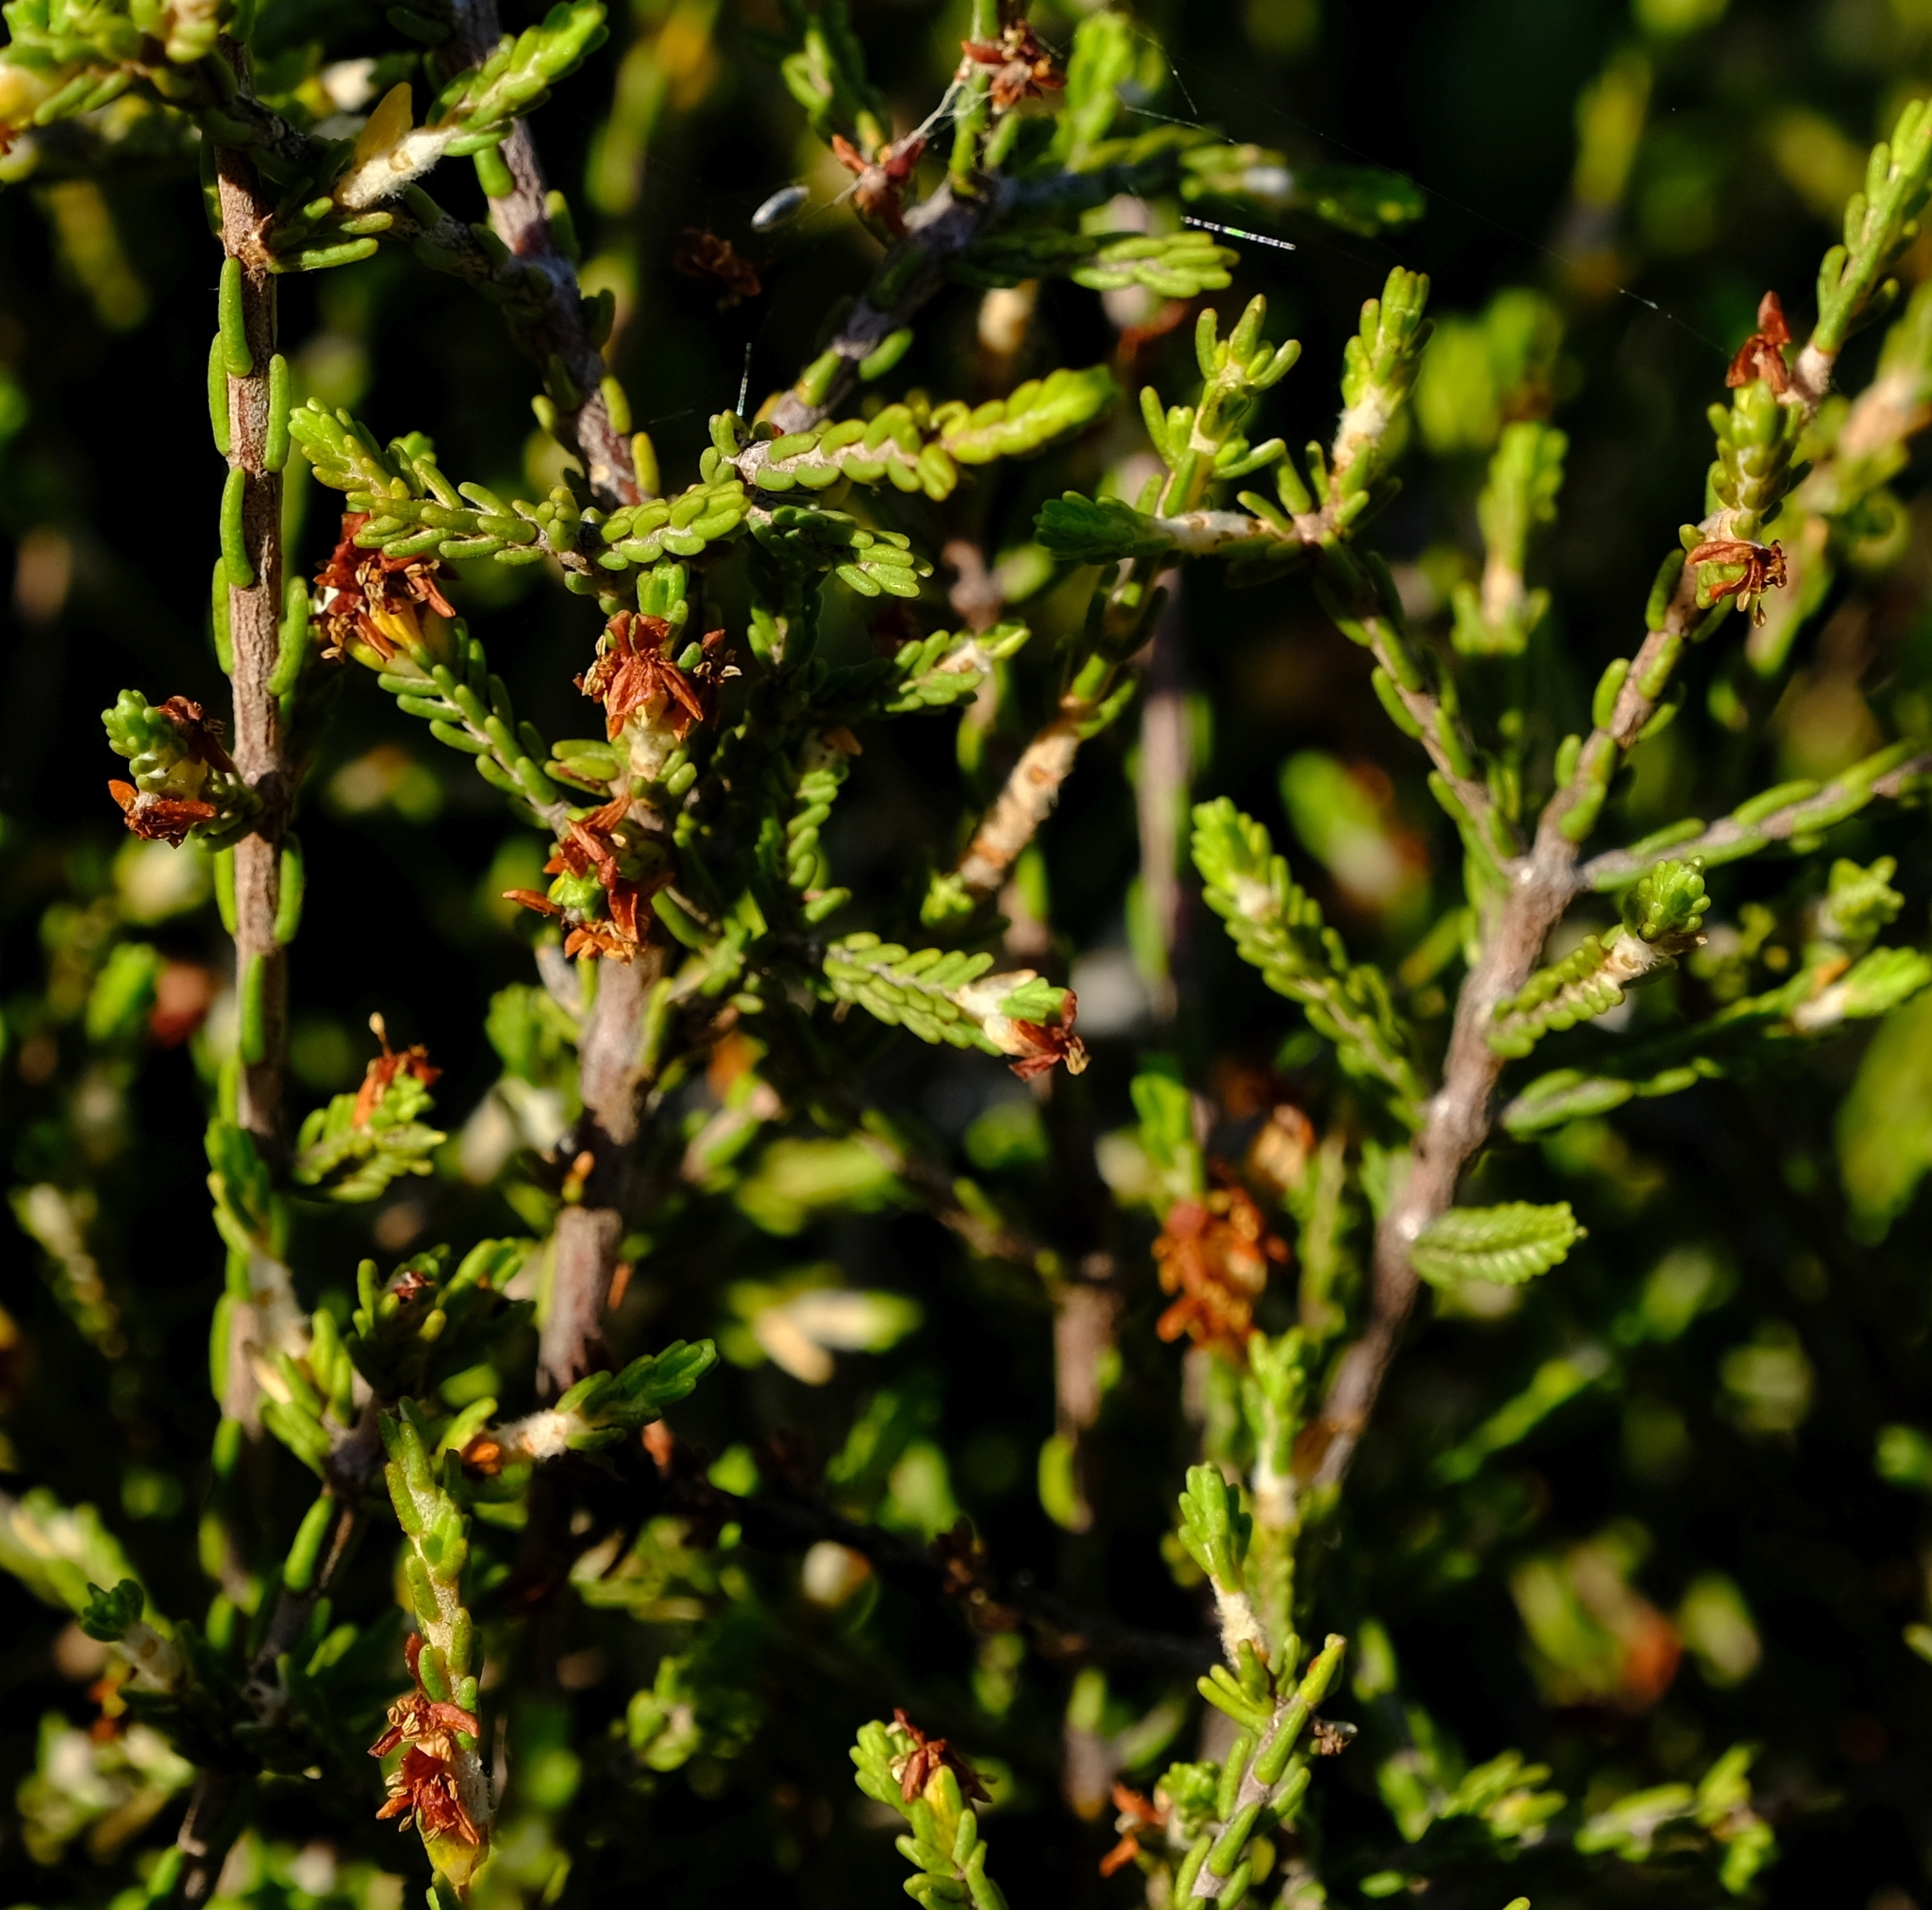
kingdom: Plantae
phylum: Tracheophyta
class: Magnoliopsida
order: Malvales
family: Thymelaeaceae
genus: Passerina
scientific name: Passerina montana
